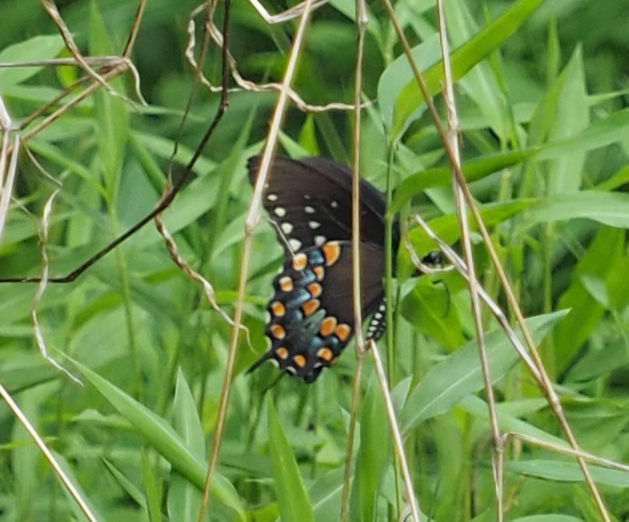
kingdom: Animalia
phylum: Arthropoda
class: Insecta
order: Lepidoptera
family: Papilionidae
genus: Papilio
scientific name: Papilio troilus
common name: Spicebush swallowtail
